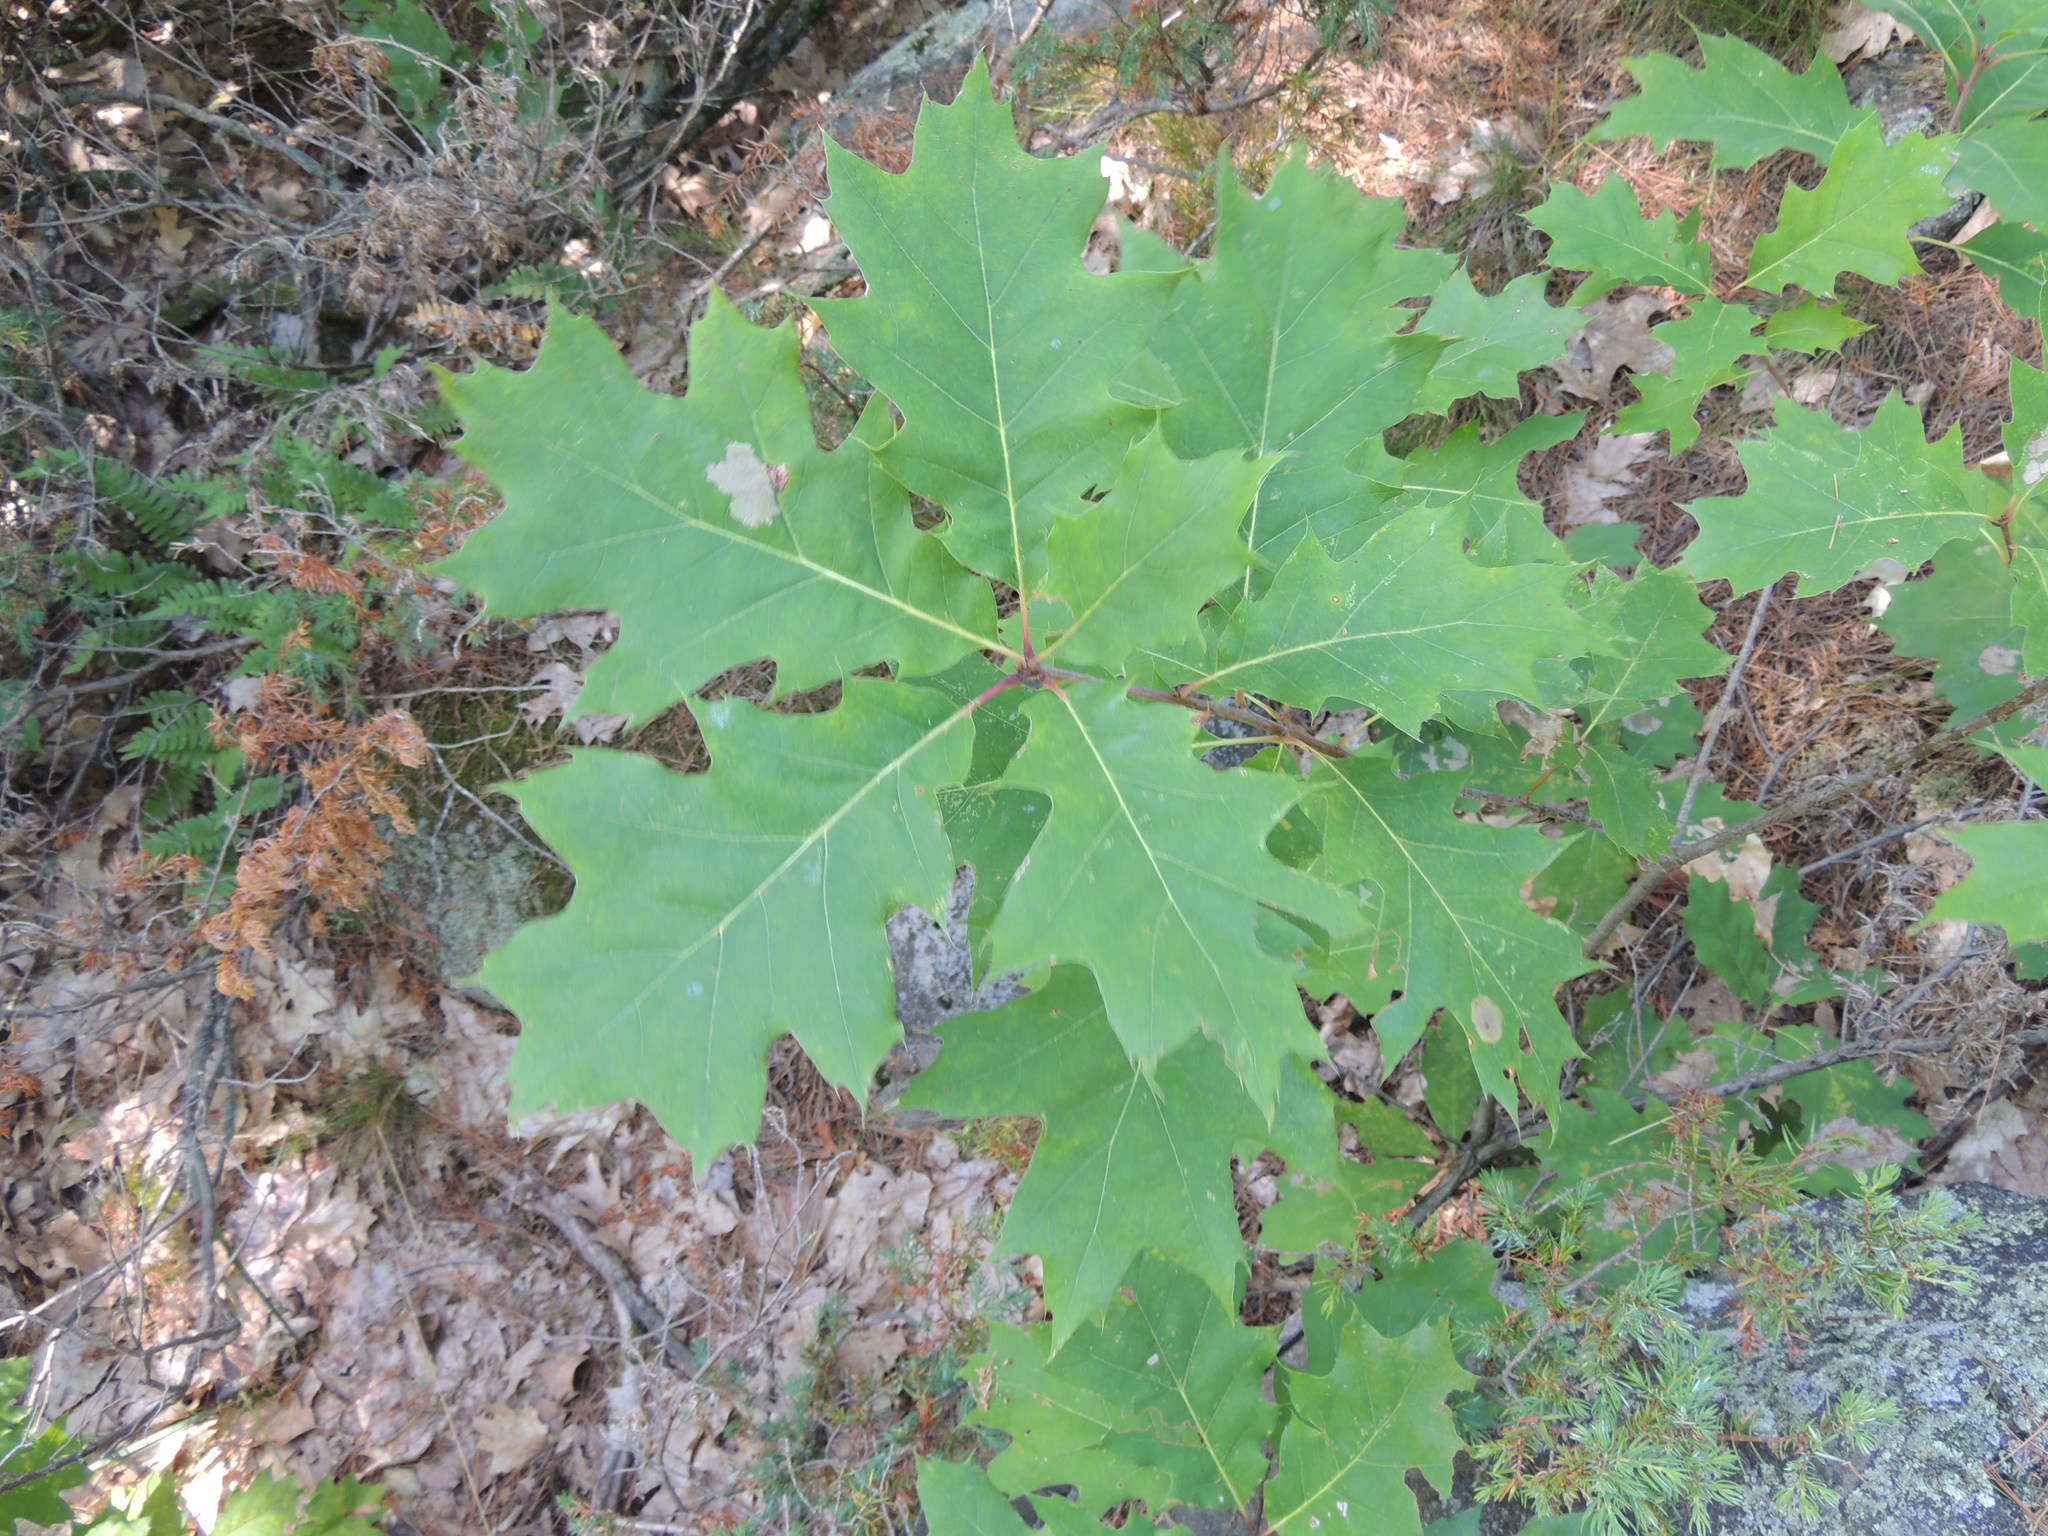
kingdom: Plantae
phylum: Tracheophyta
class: Magnoliopsida
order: Fagales
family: Fagaceae
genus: Quercus
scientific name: Quercus rubra
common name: Red oak
